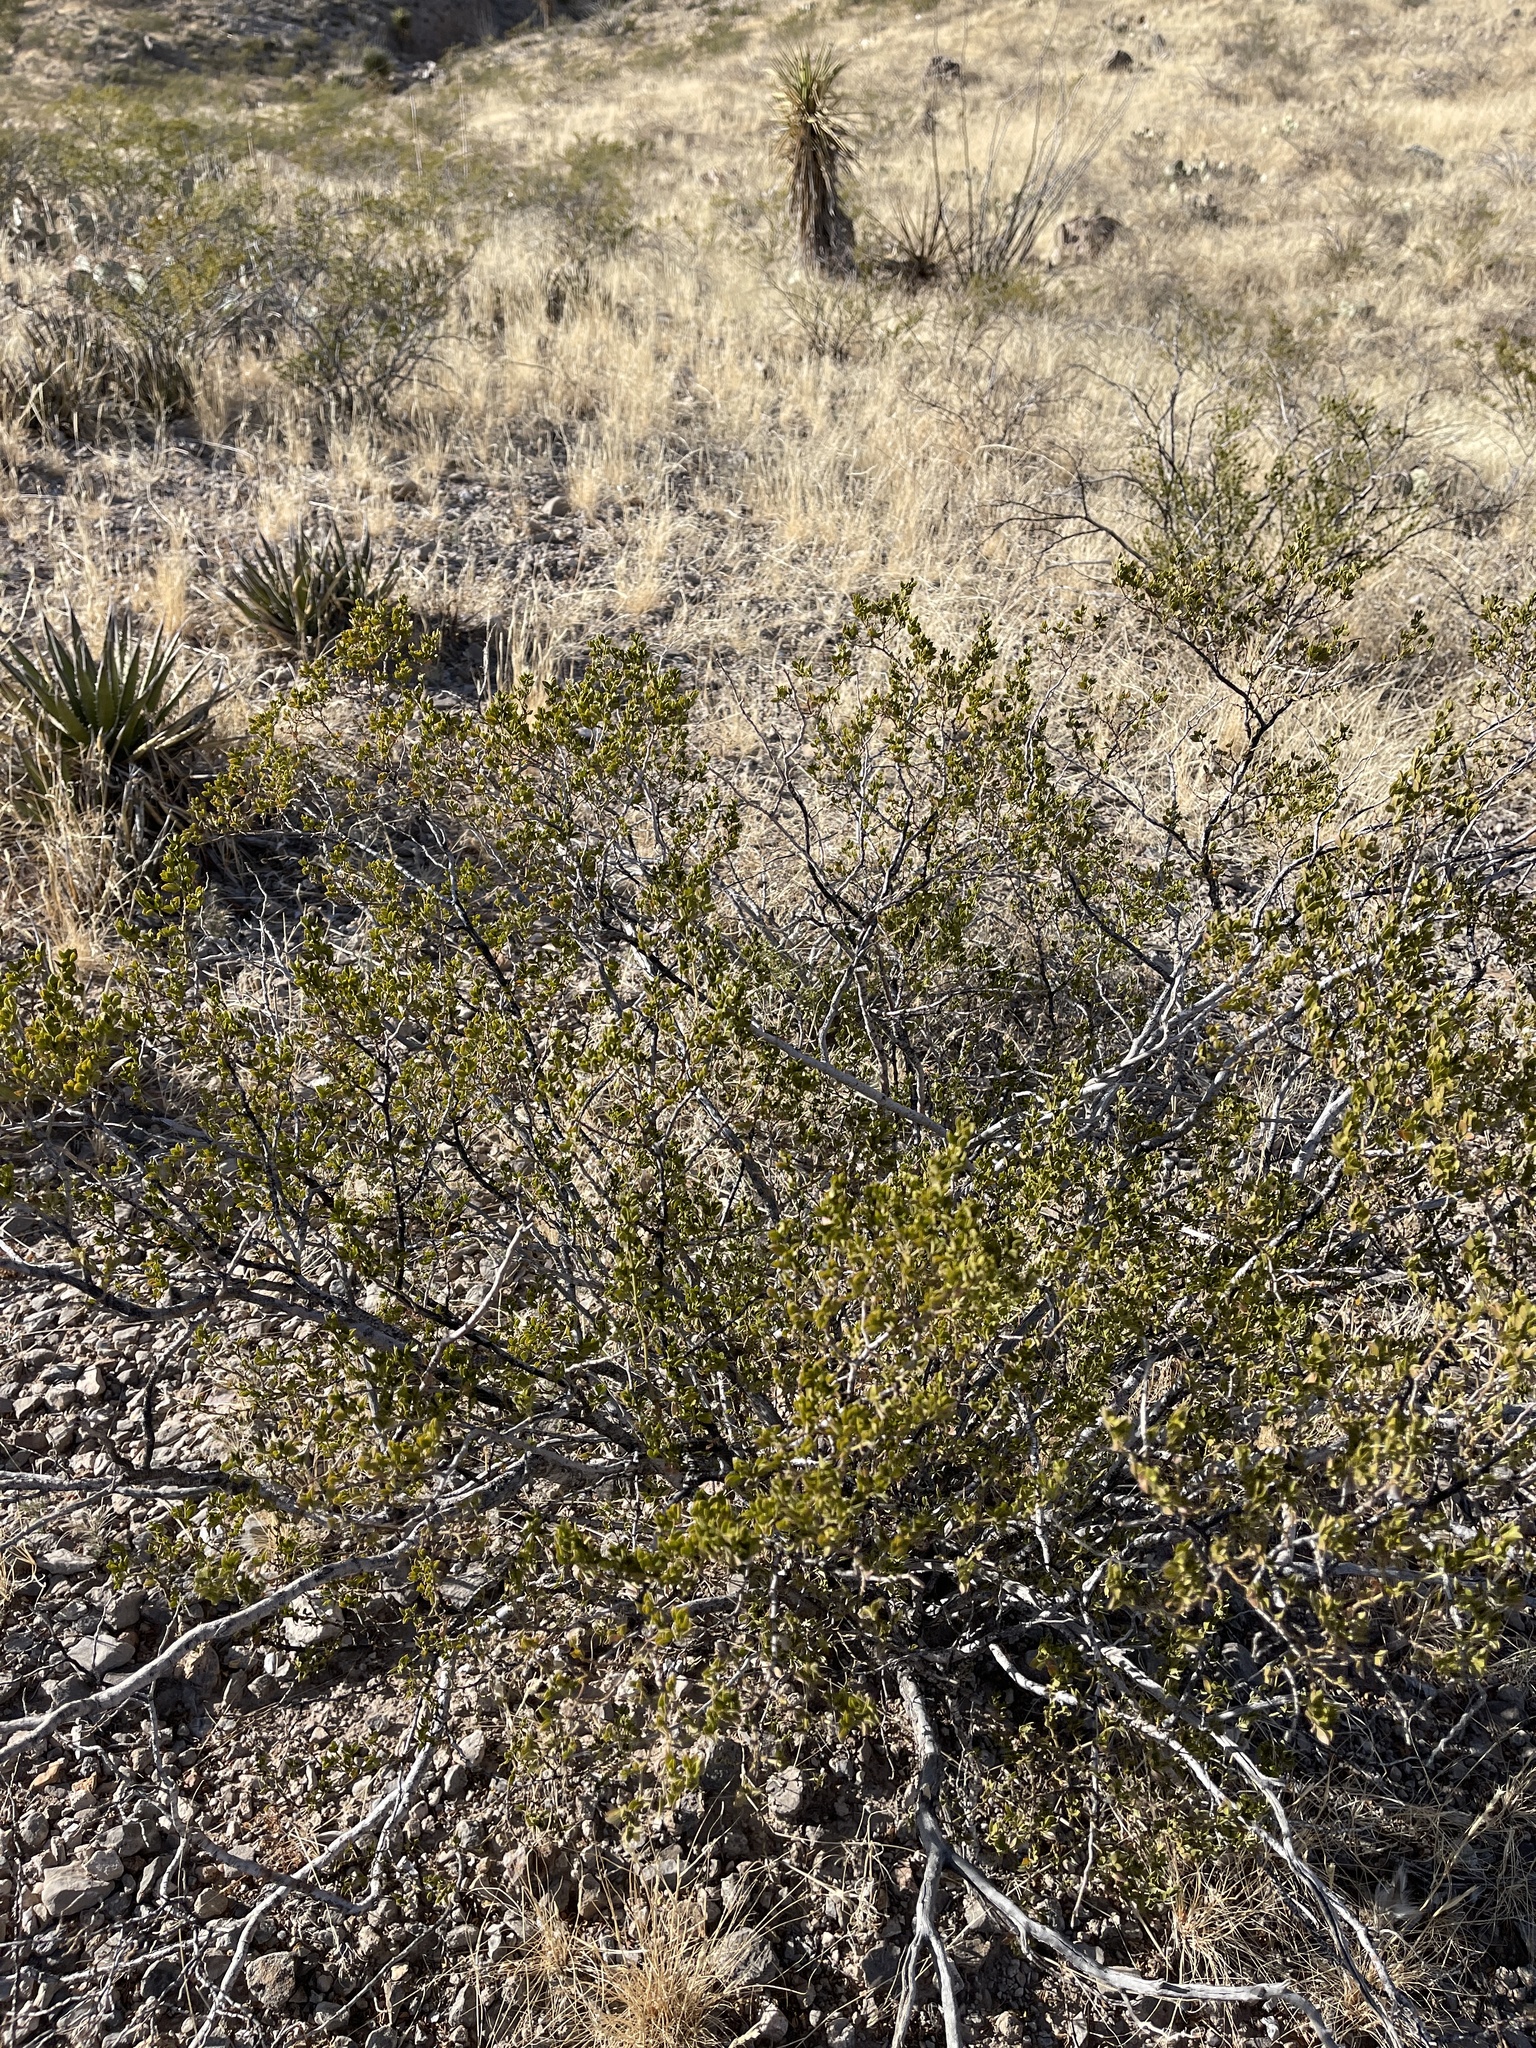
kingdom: Plantae
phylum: Tracheophyta
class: Magnoliopsida
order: Zygophyllales
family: Zygophyllaceae
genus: Larrea
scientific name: Larrea tridentata
